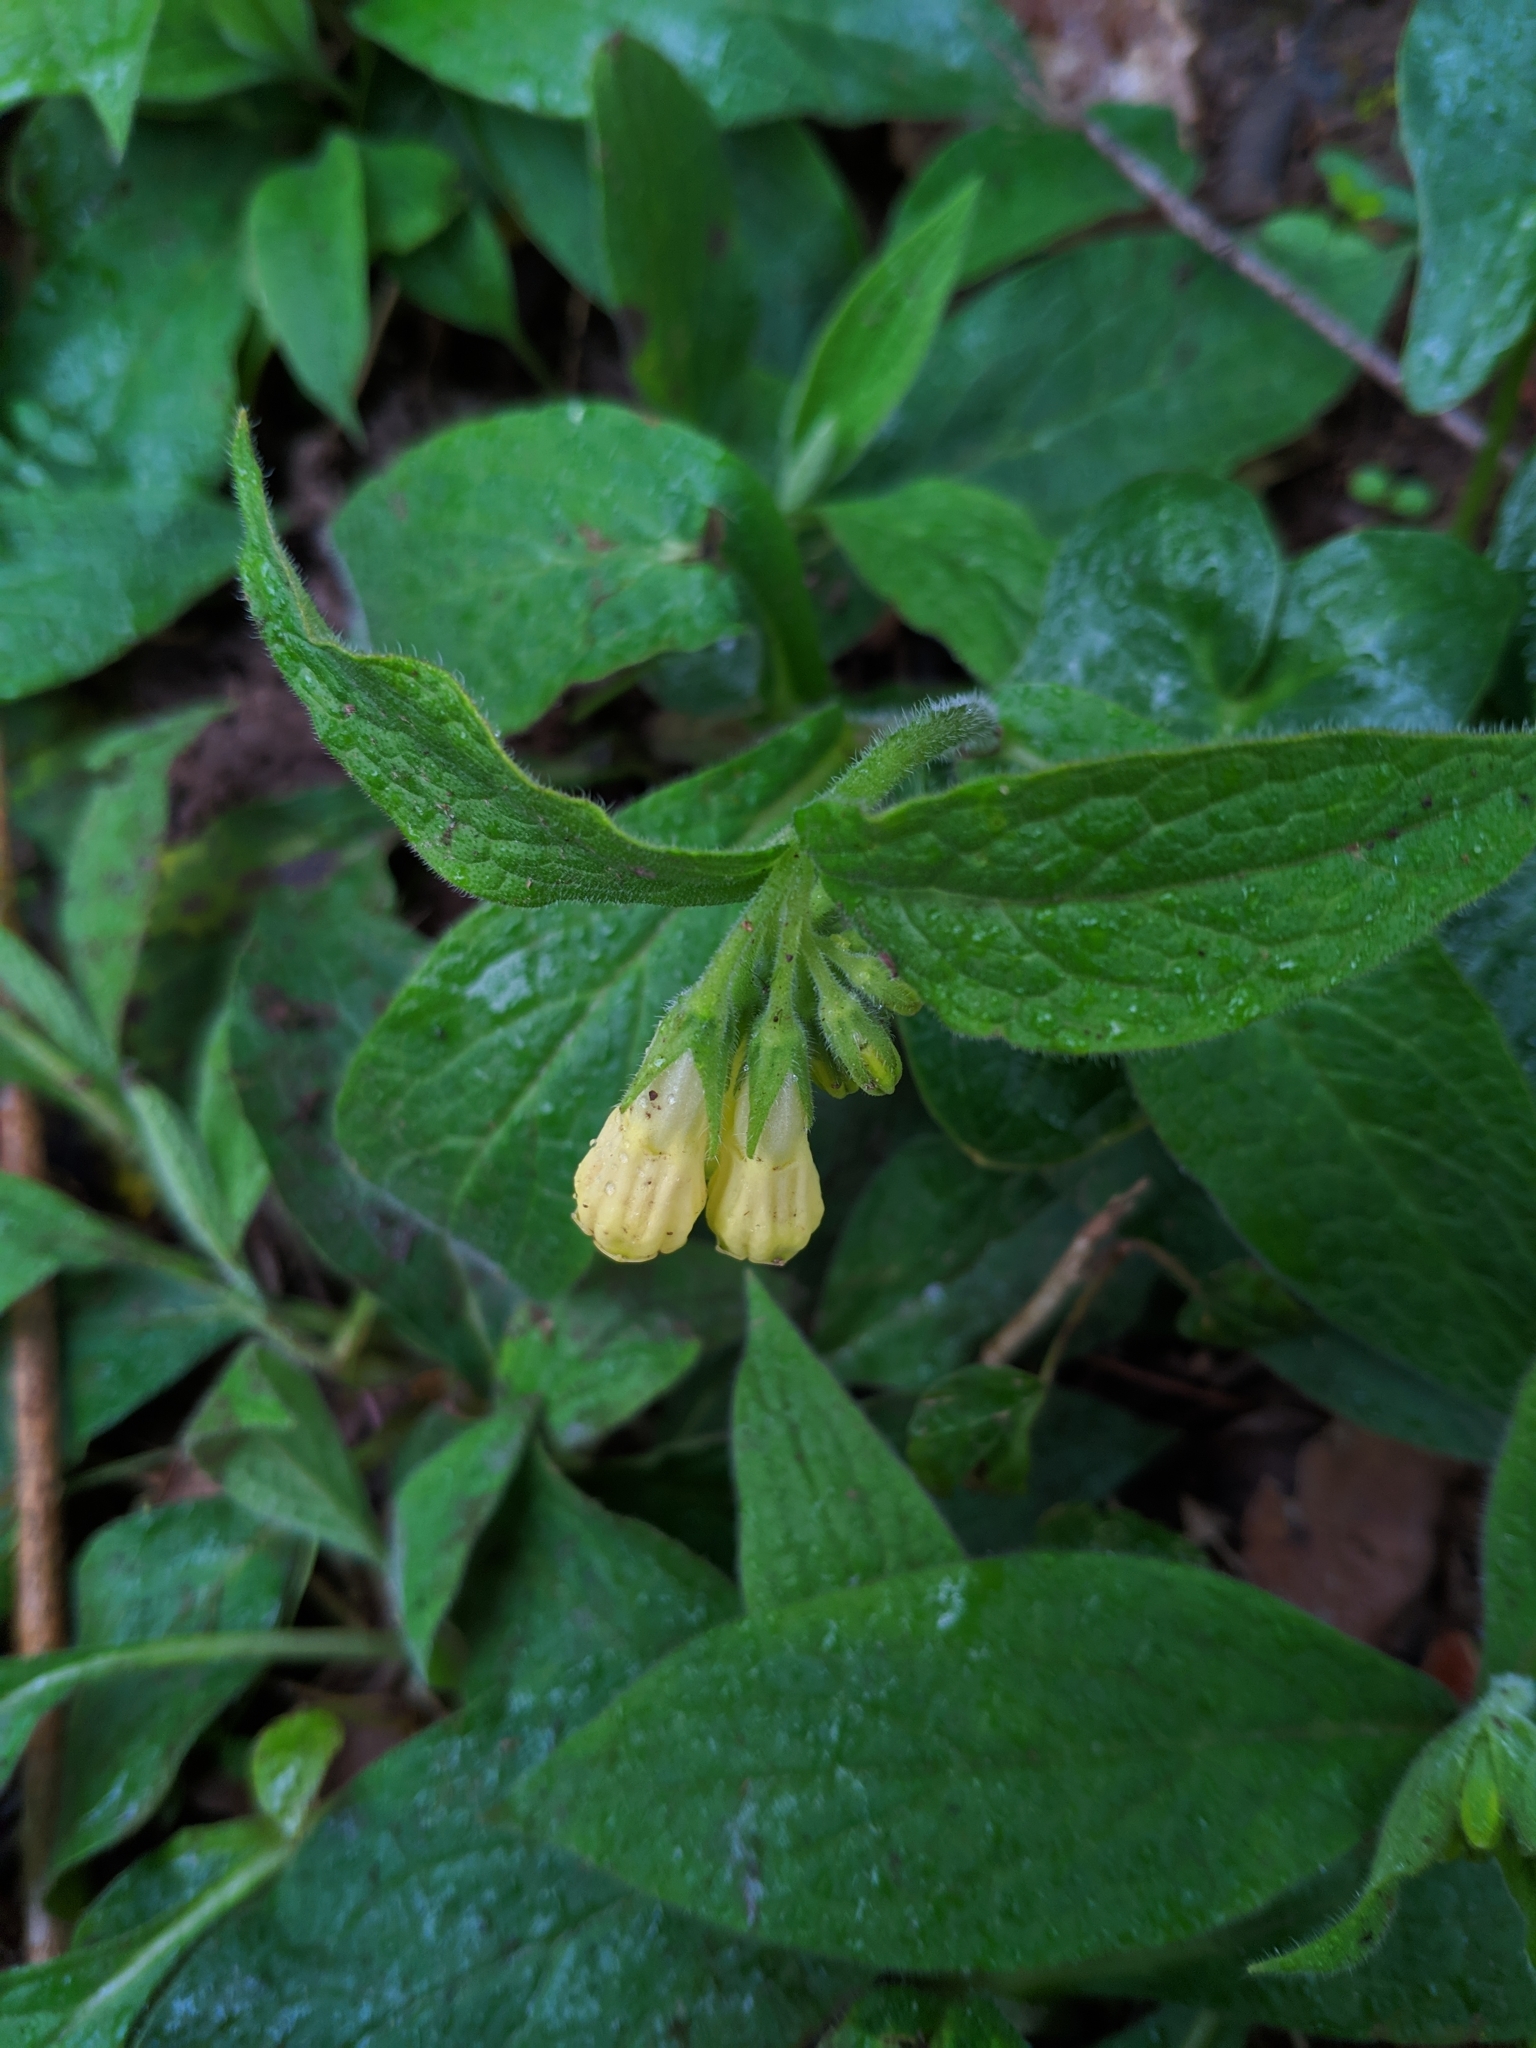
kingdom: Plantae
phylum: Tracheophyta
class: Magnoliopsida
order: Boraginales
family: Boraginaceae
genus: Symphytum
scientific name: Symphytum tuberosum
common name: Tuberous comfrey
